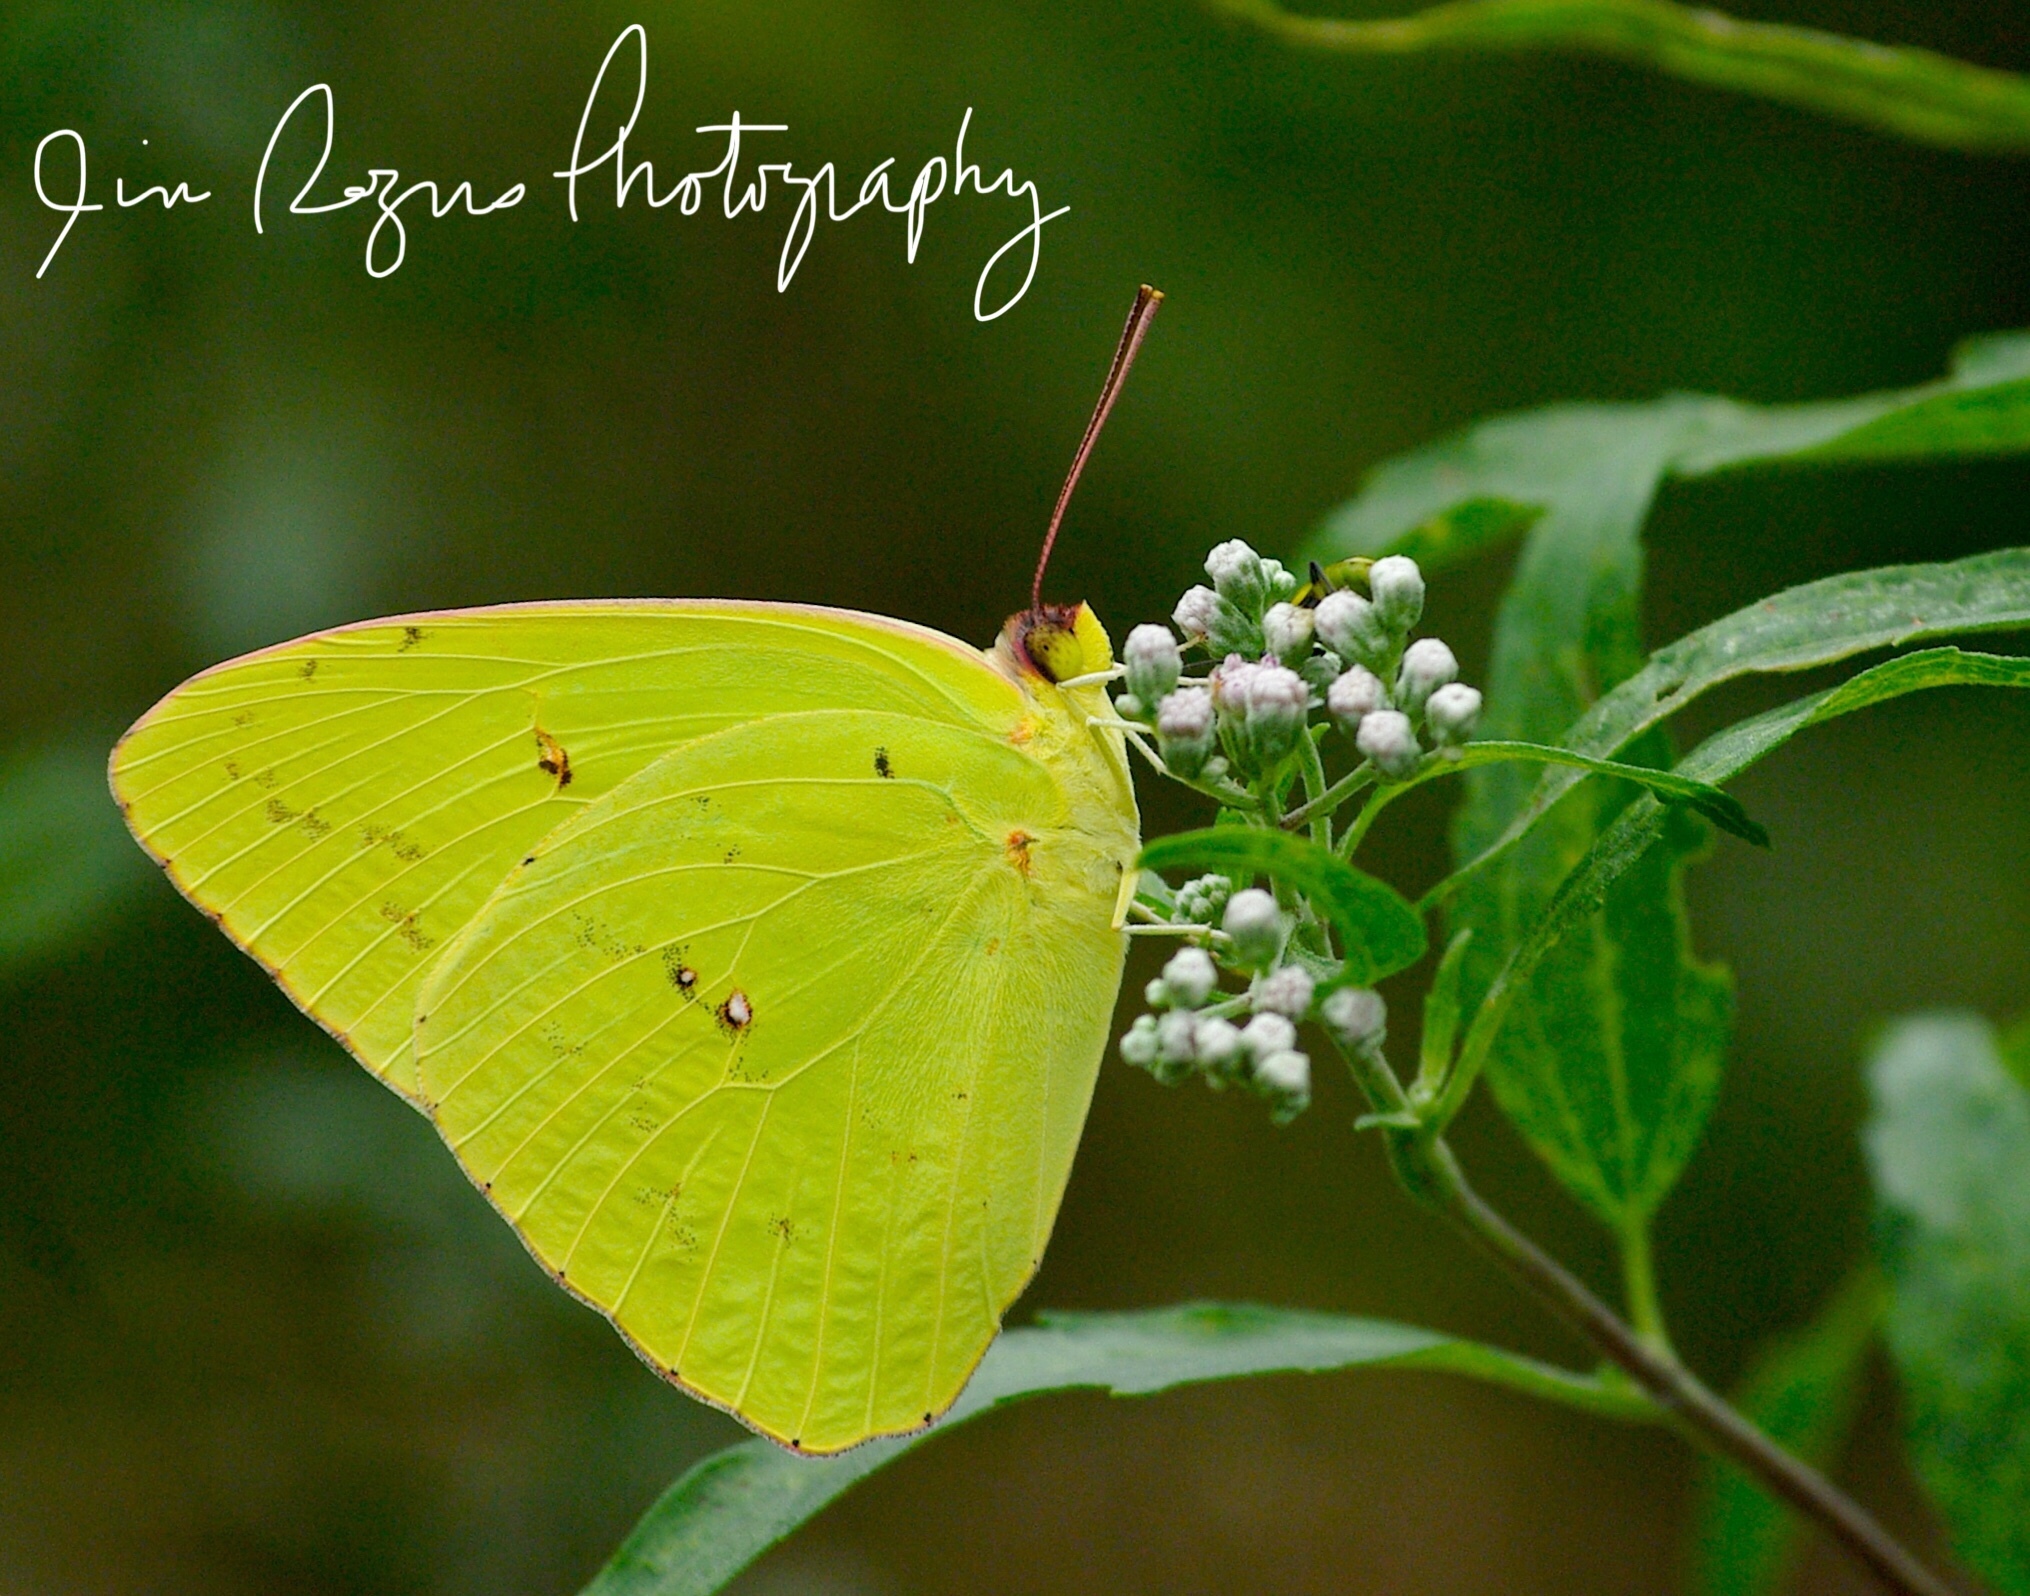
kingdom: Animalia
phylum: Arthropoda
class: Insecta
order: Lepidoptera
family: Pieridae
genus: Phoebis
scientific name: Phoebis sennae
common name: Cloudless sulphur
